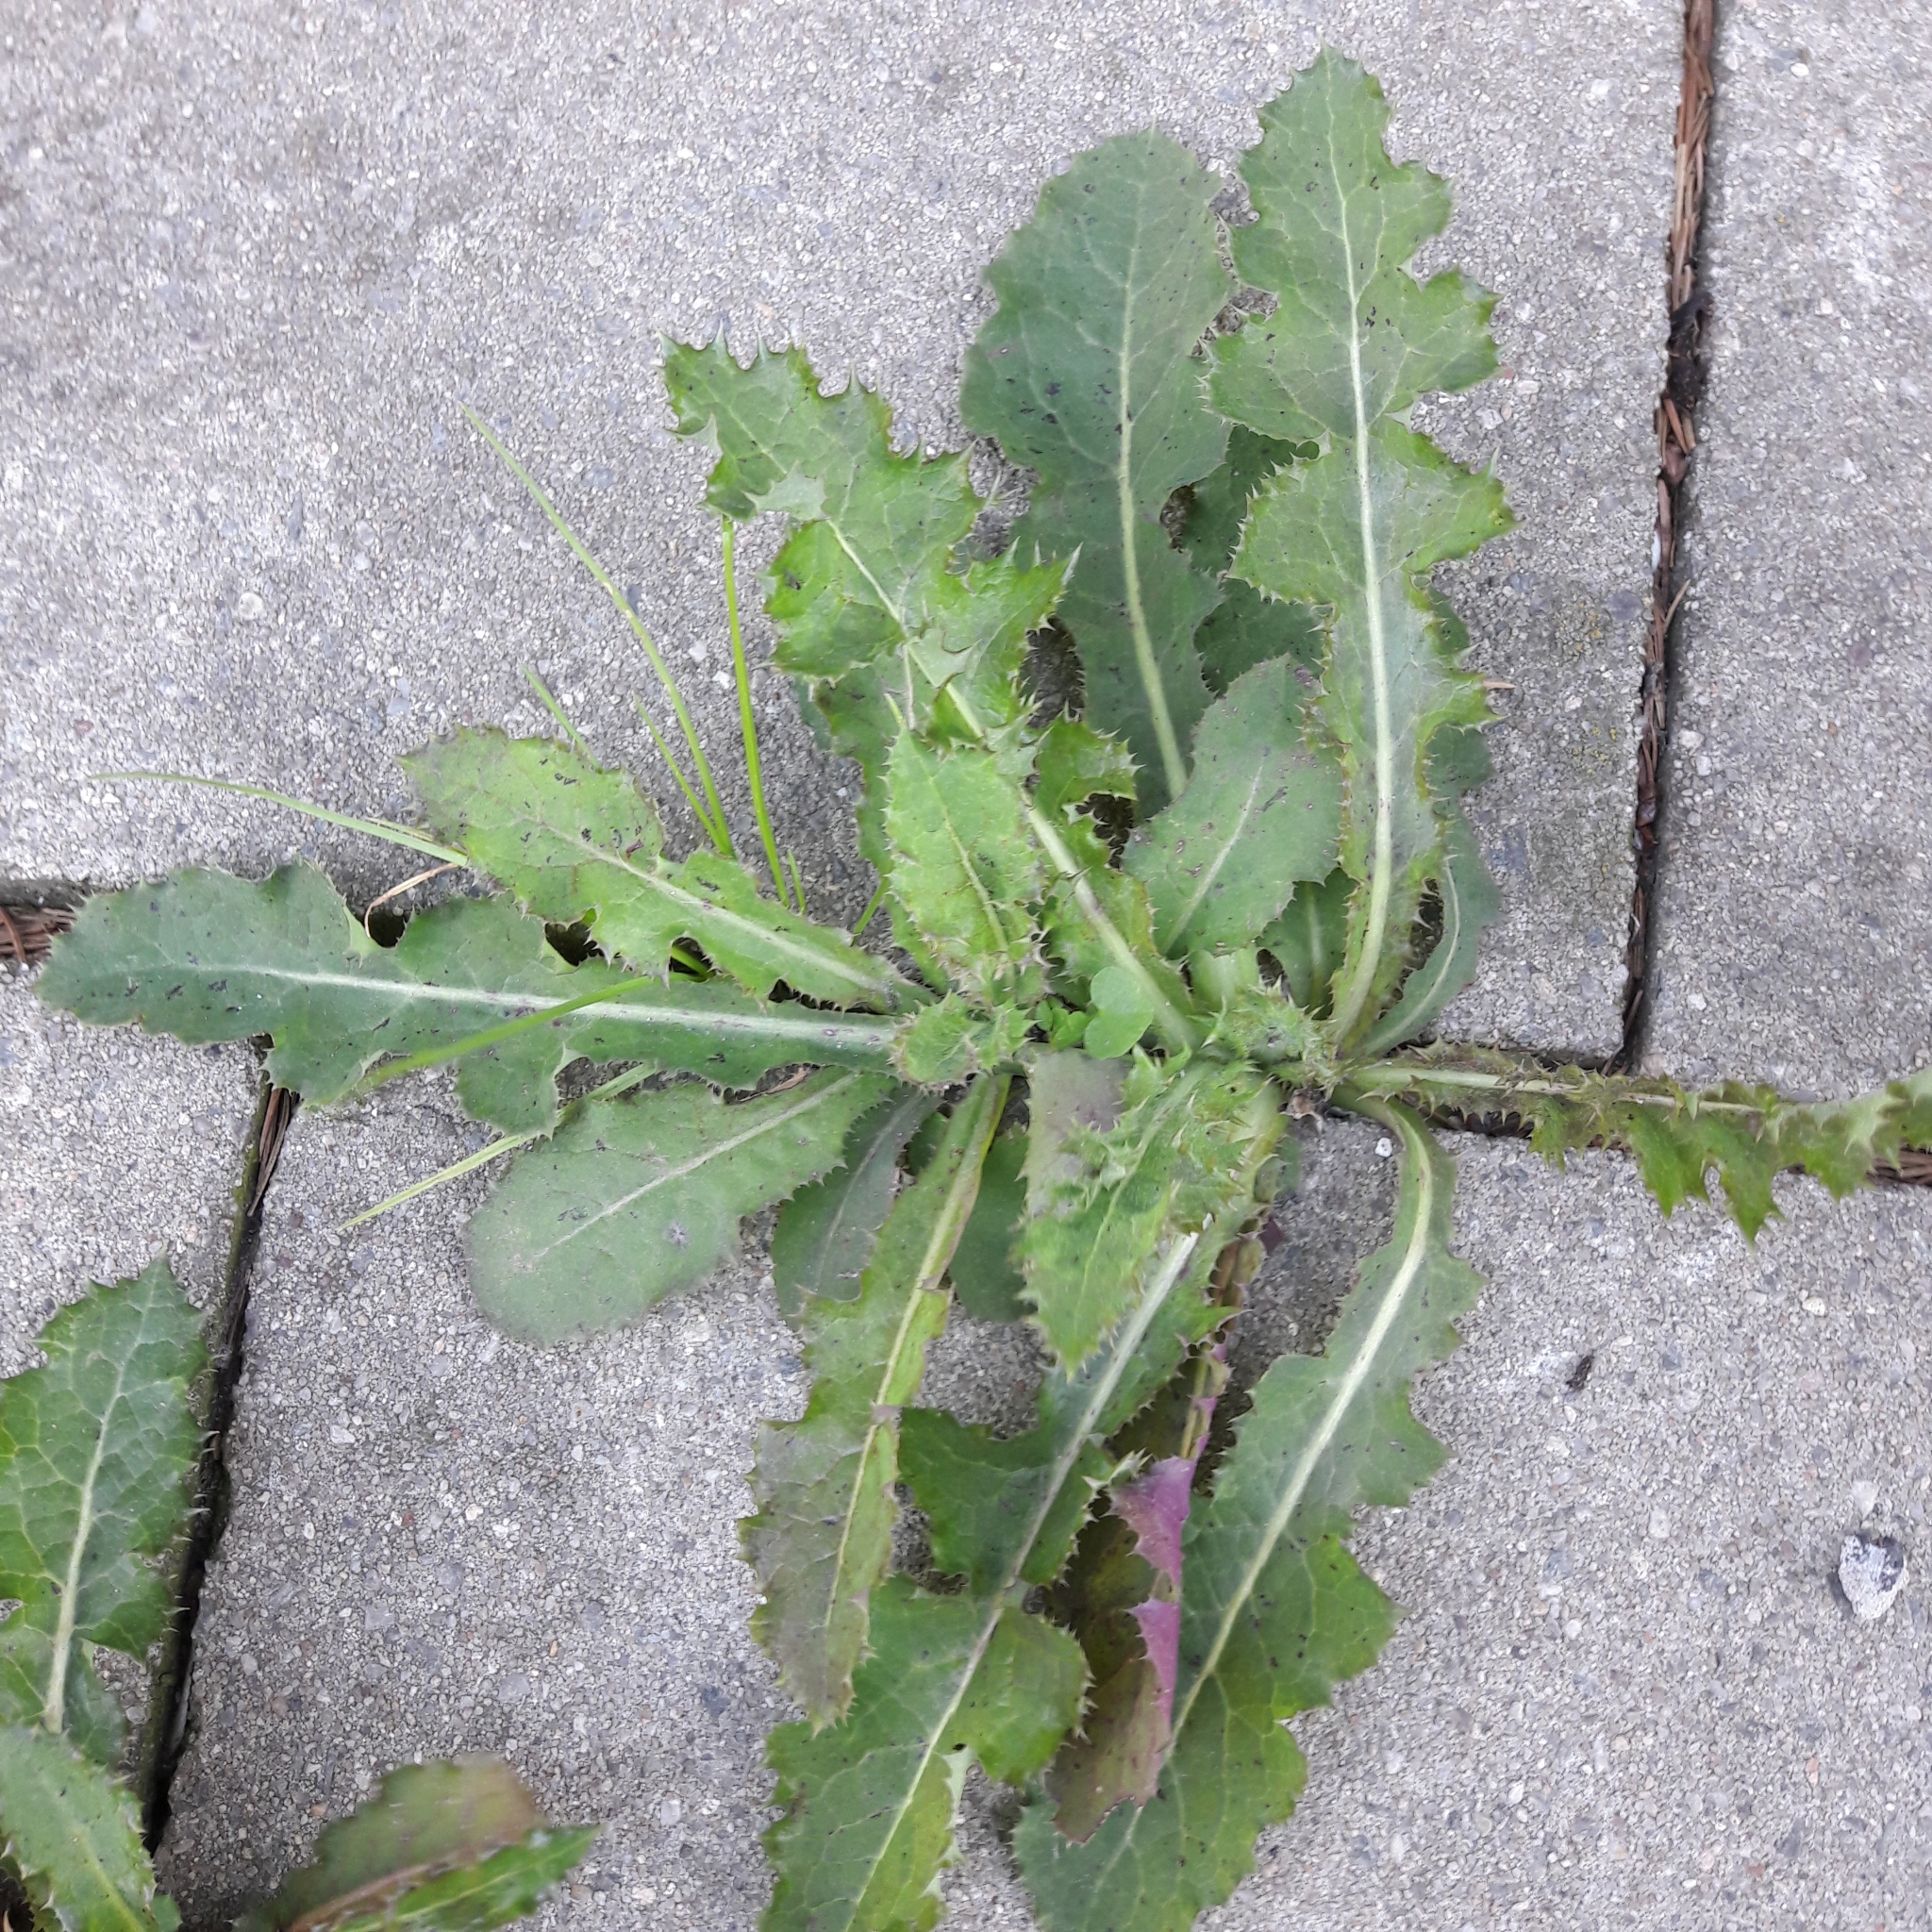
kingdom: Plantae
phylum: Tracheophyta
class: Magnoliopsida
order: Asterales
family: Asteraceae
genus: Sonchus
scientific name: Sonchus asper
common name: Prickly sow-thistle
